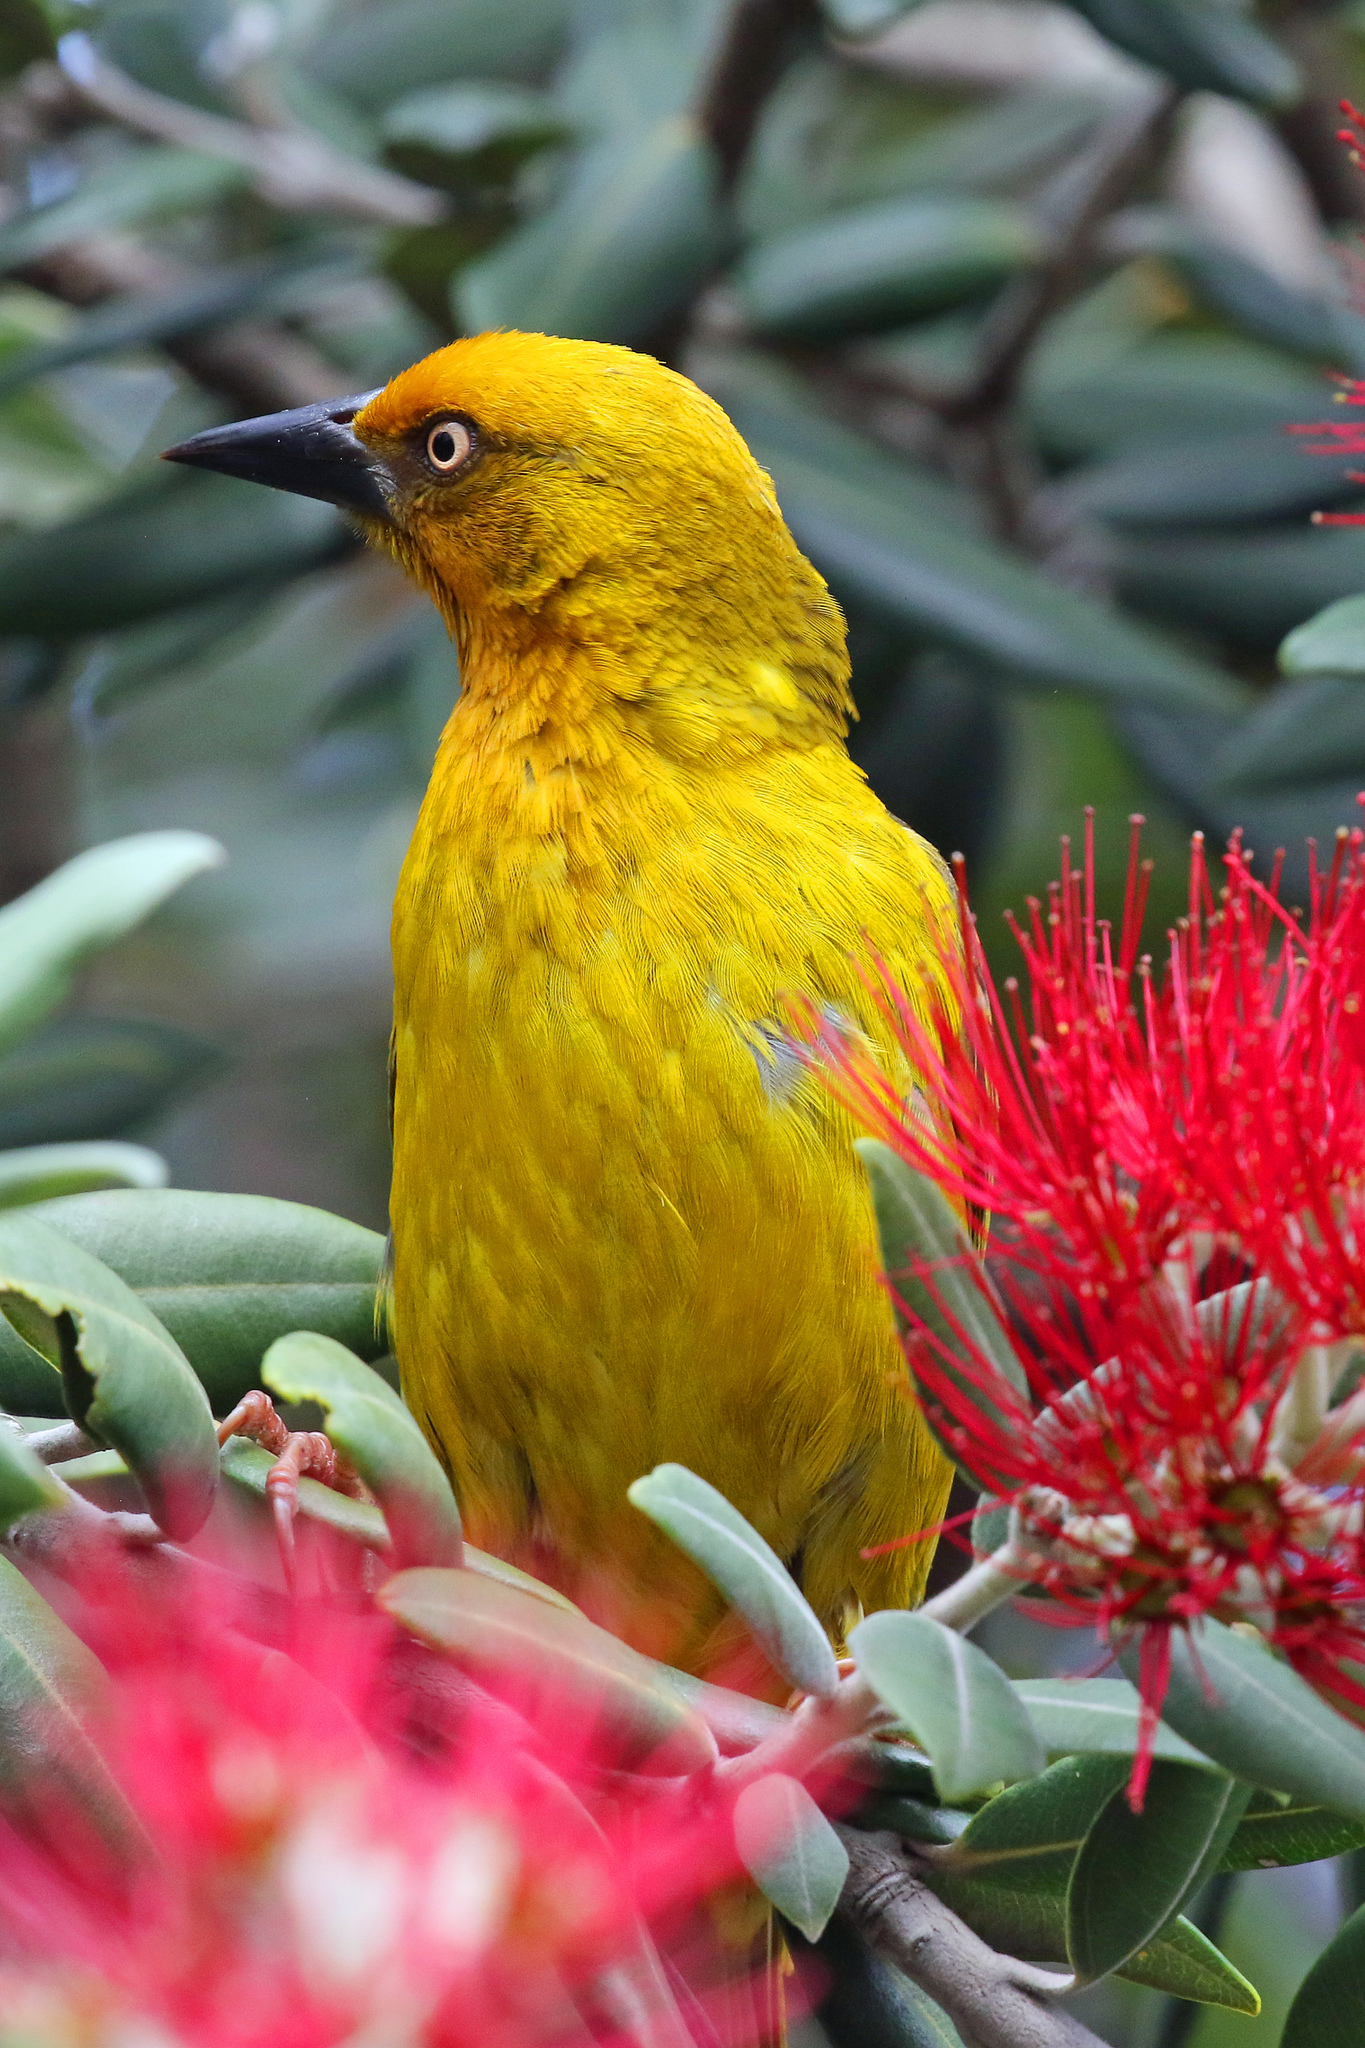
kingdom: Animalia
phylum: Chordata
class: Aves
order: Passeriformes
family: Ploceidae
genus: Ploceus
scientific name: Ploceus capensis
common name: Cape weaver
